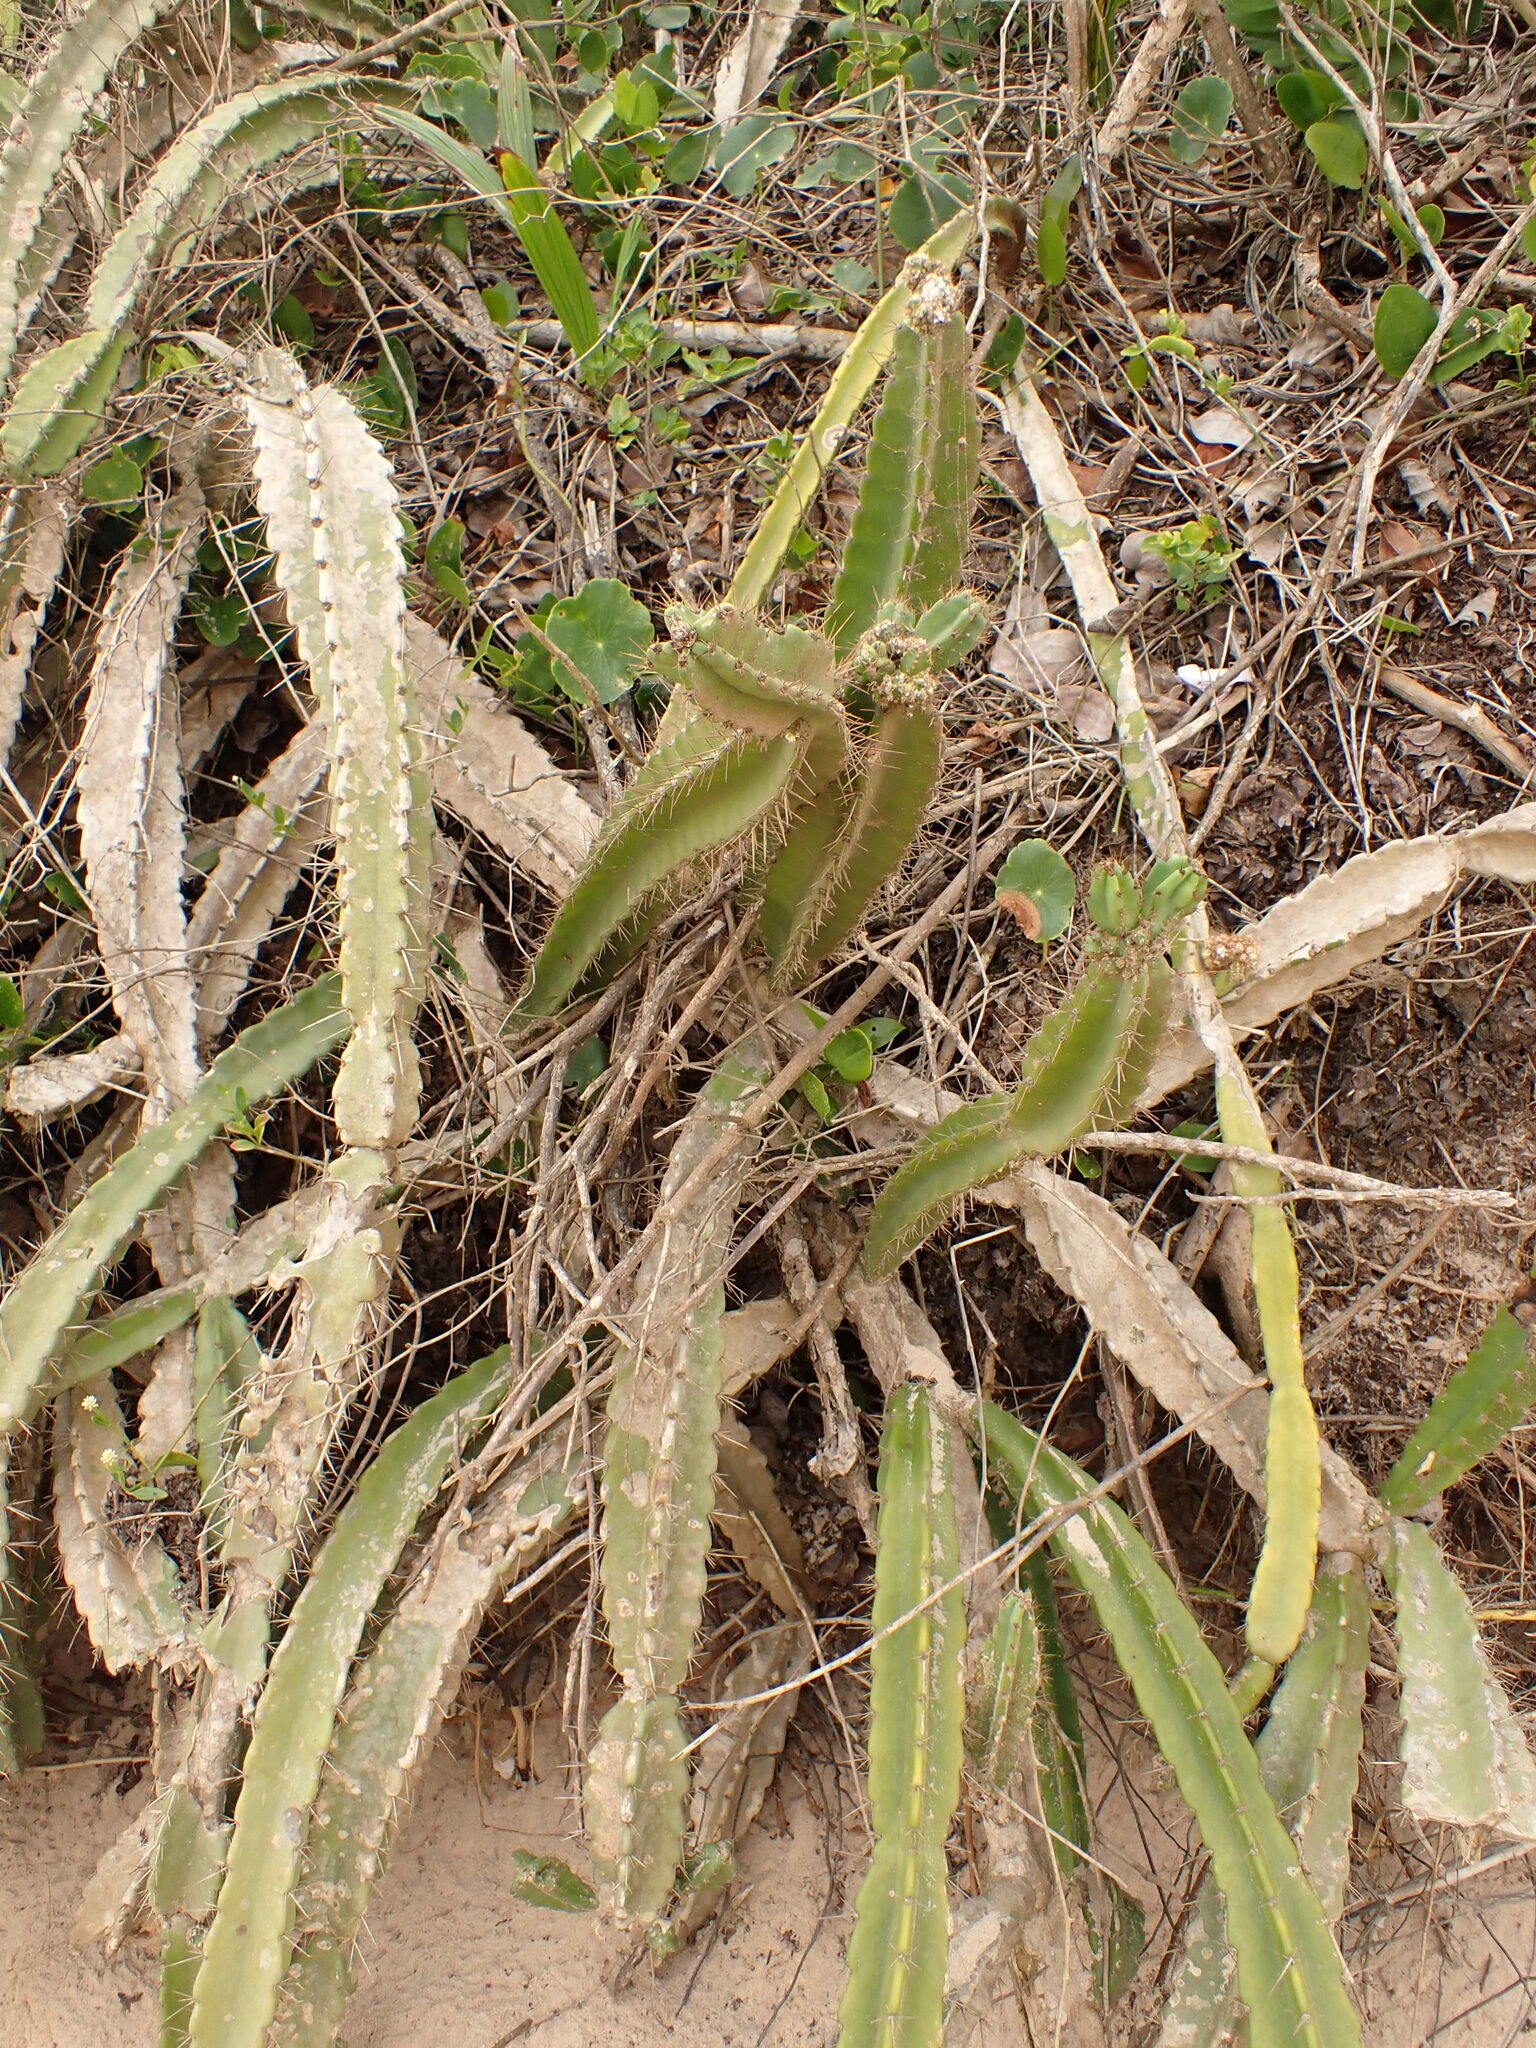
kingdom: Plantae
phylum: Tracheophyta
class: Magnoliopsida
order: Caryophyllales
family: Cactaceae
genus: Cereus
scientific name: Cereus fernambucensis
